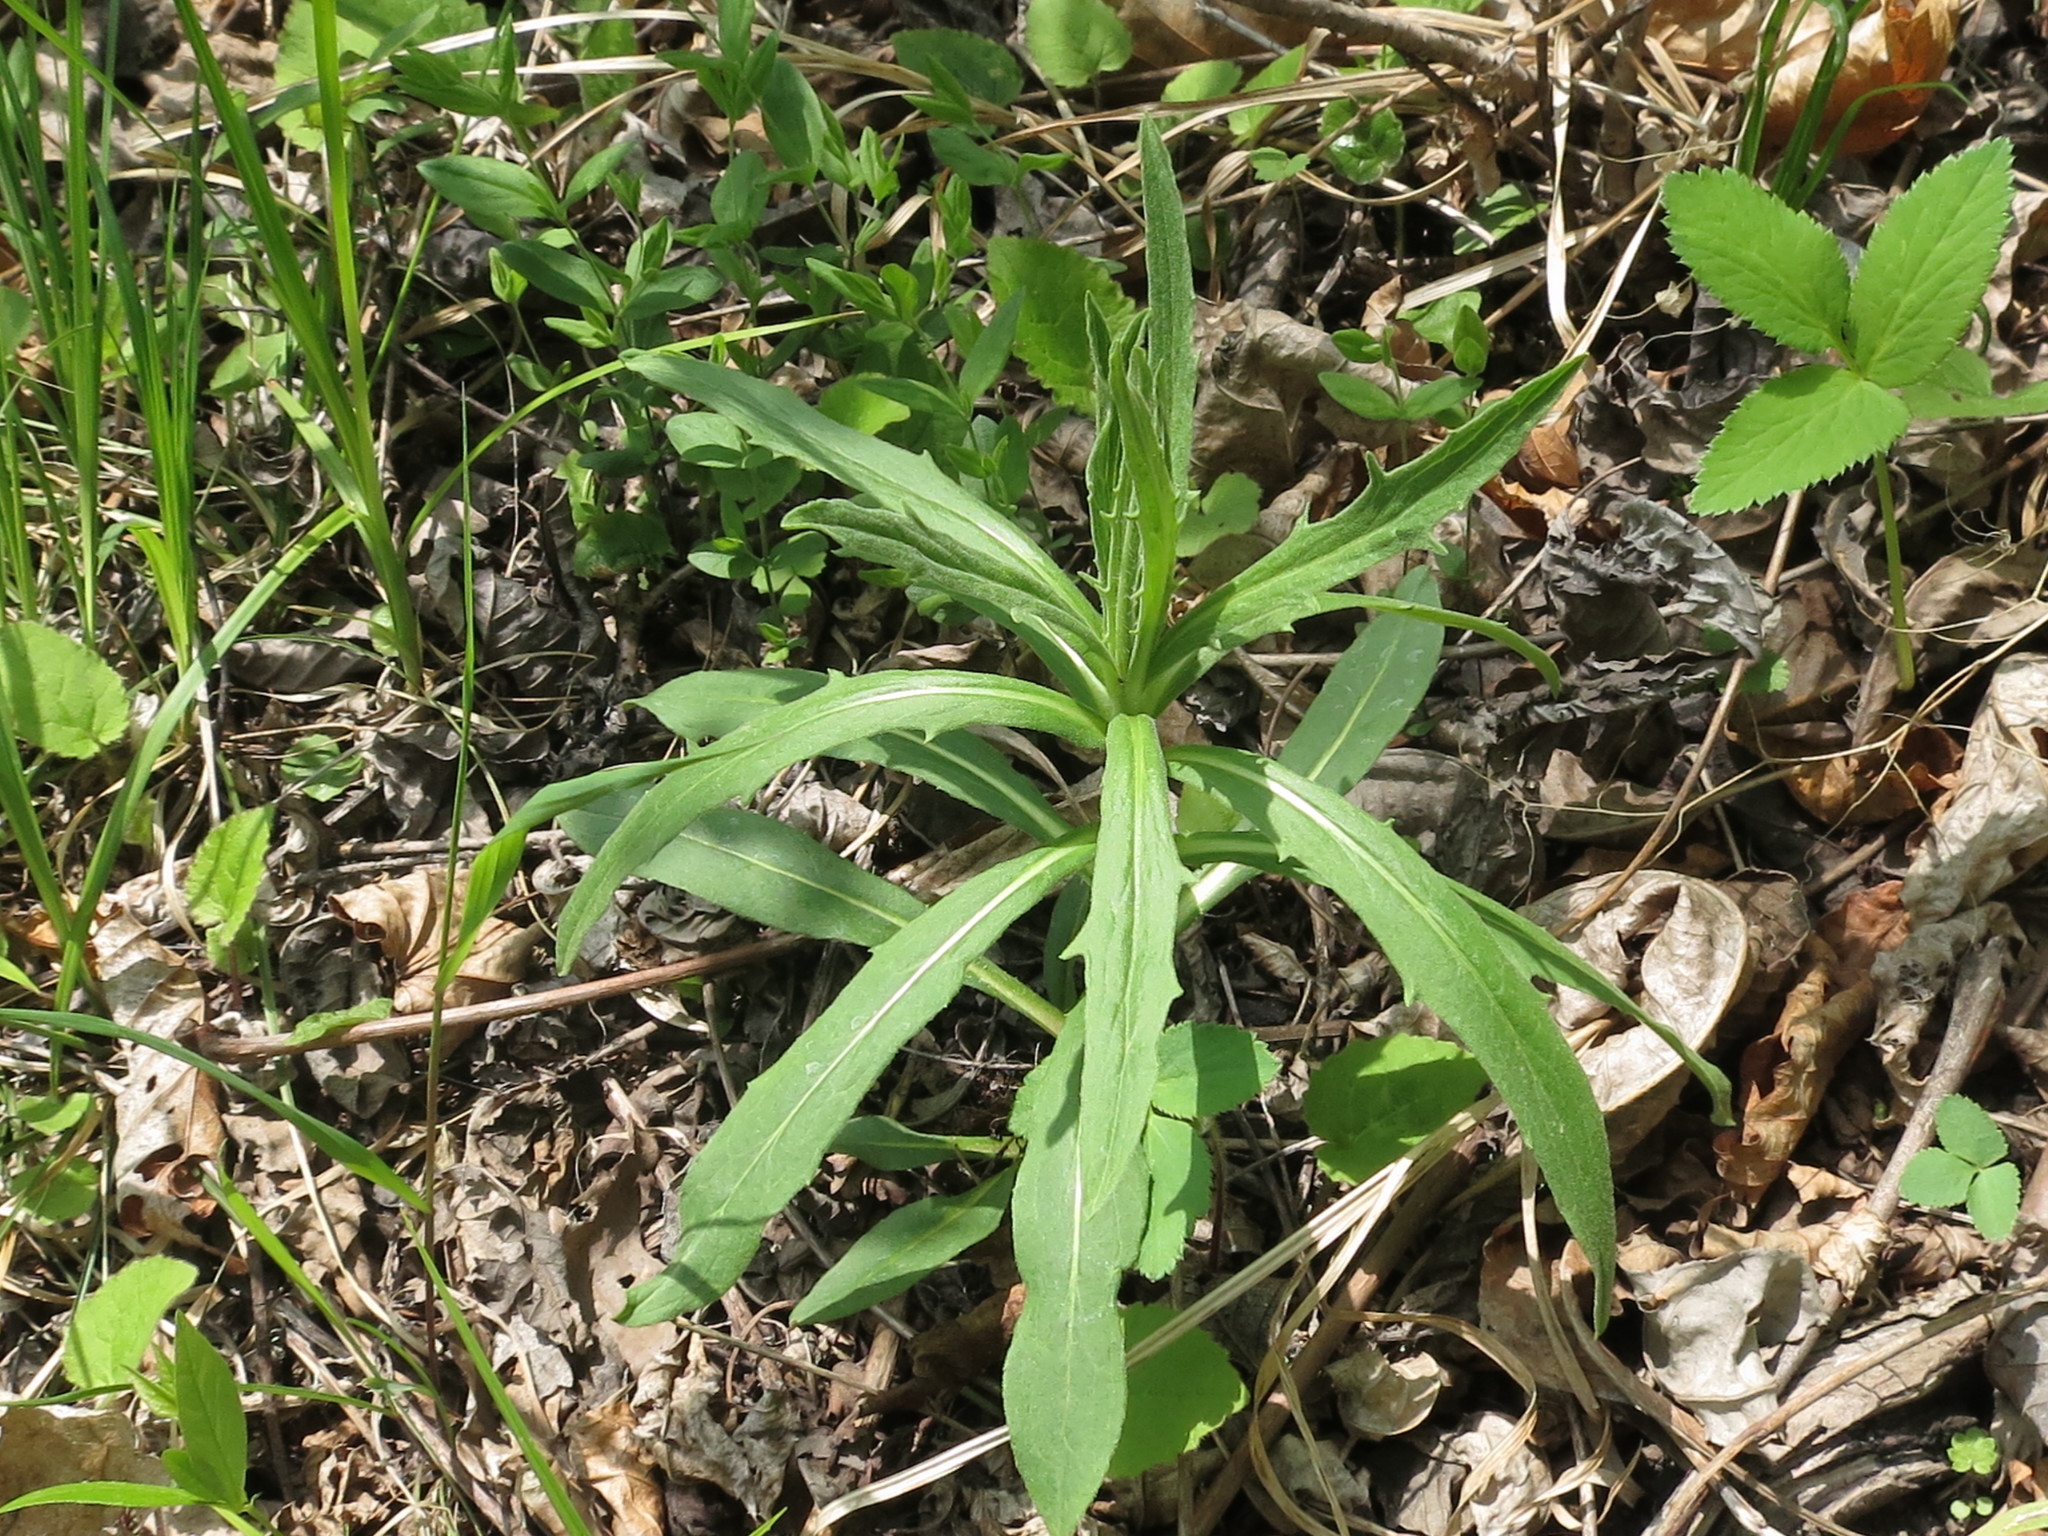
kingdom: Plantae
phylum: Tracheophyta
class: Magnoliopsida
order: Asterales
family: Asteraceae
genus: Hieracium
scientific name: Hieracium umbellatum
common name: Northern hawkweed
